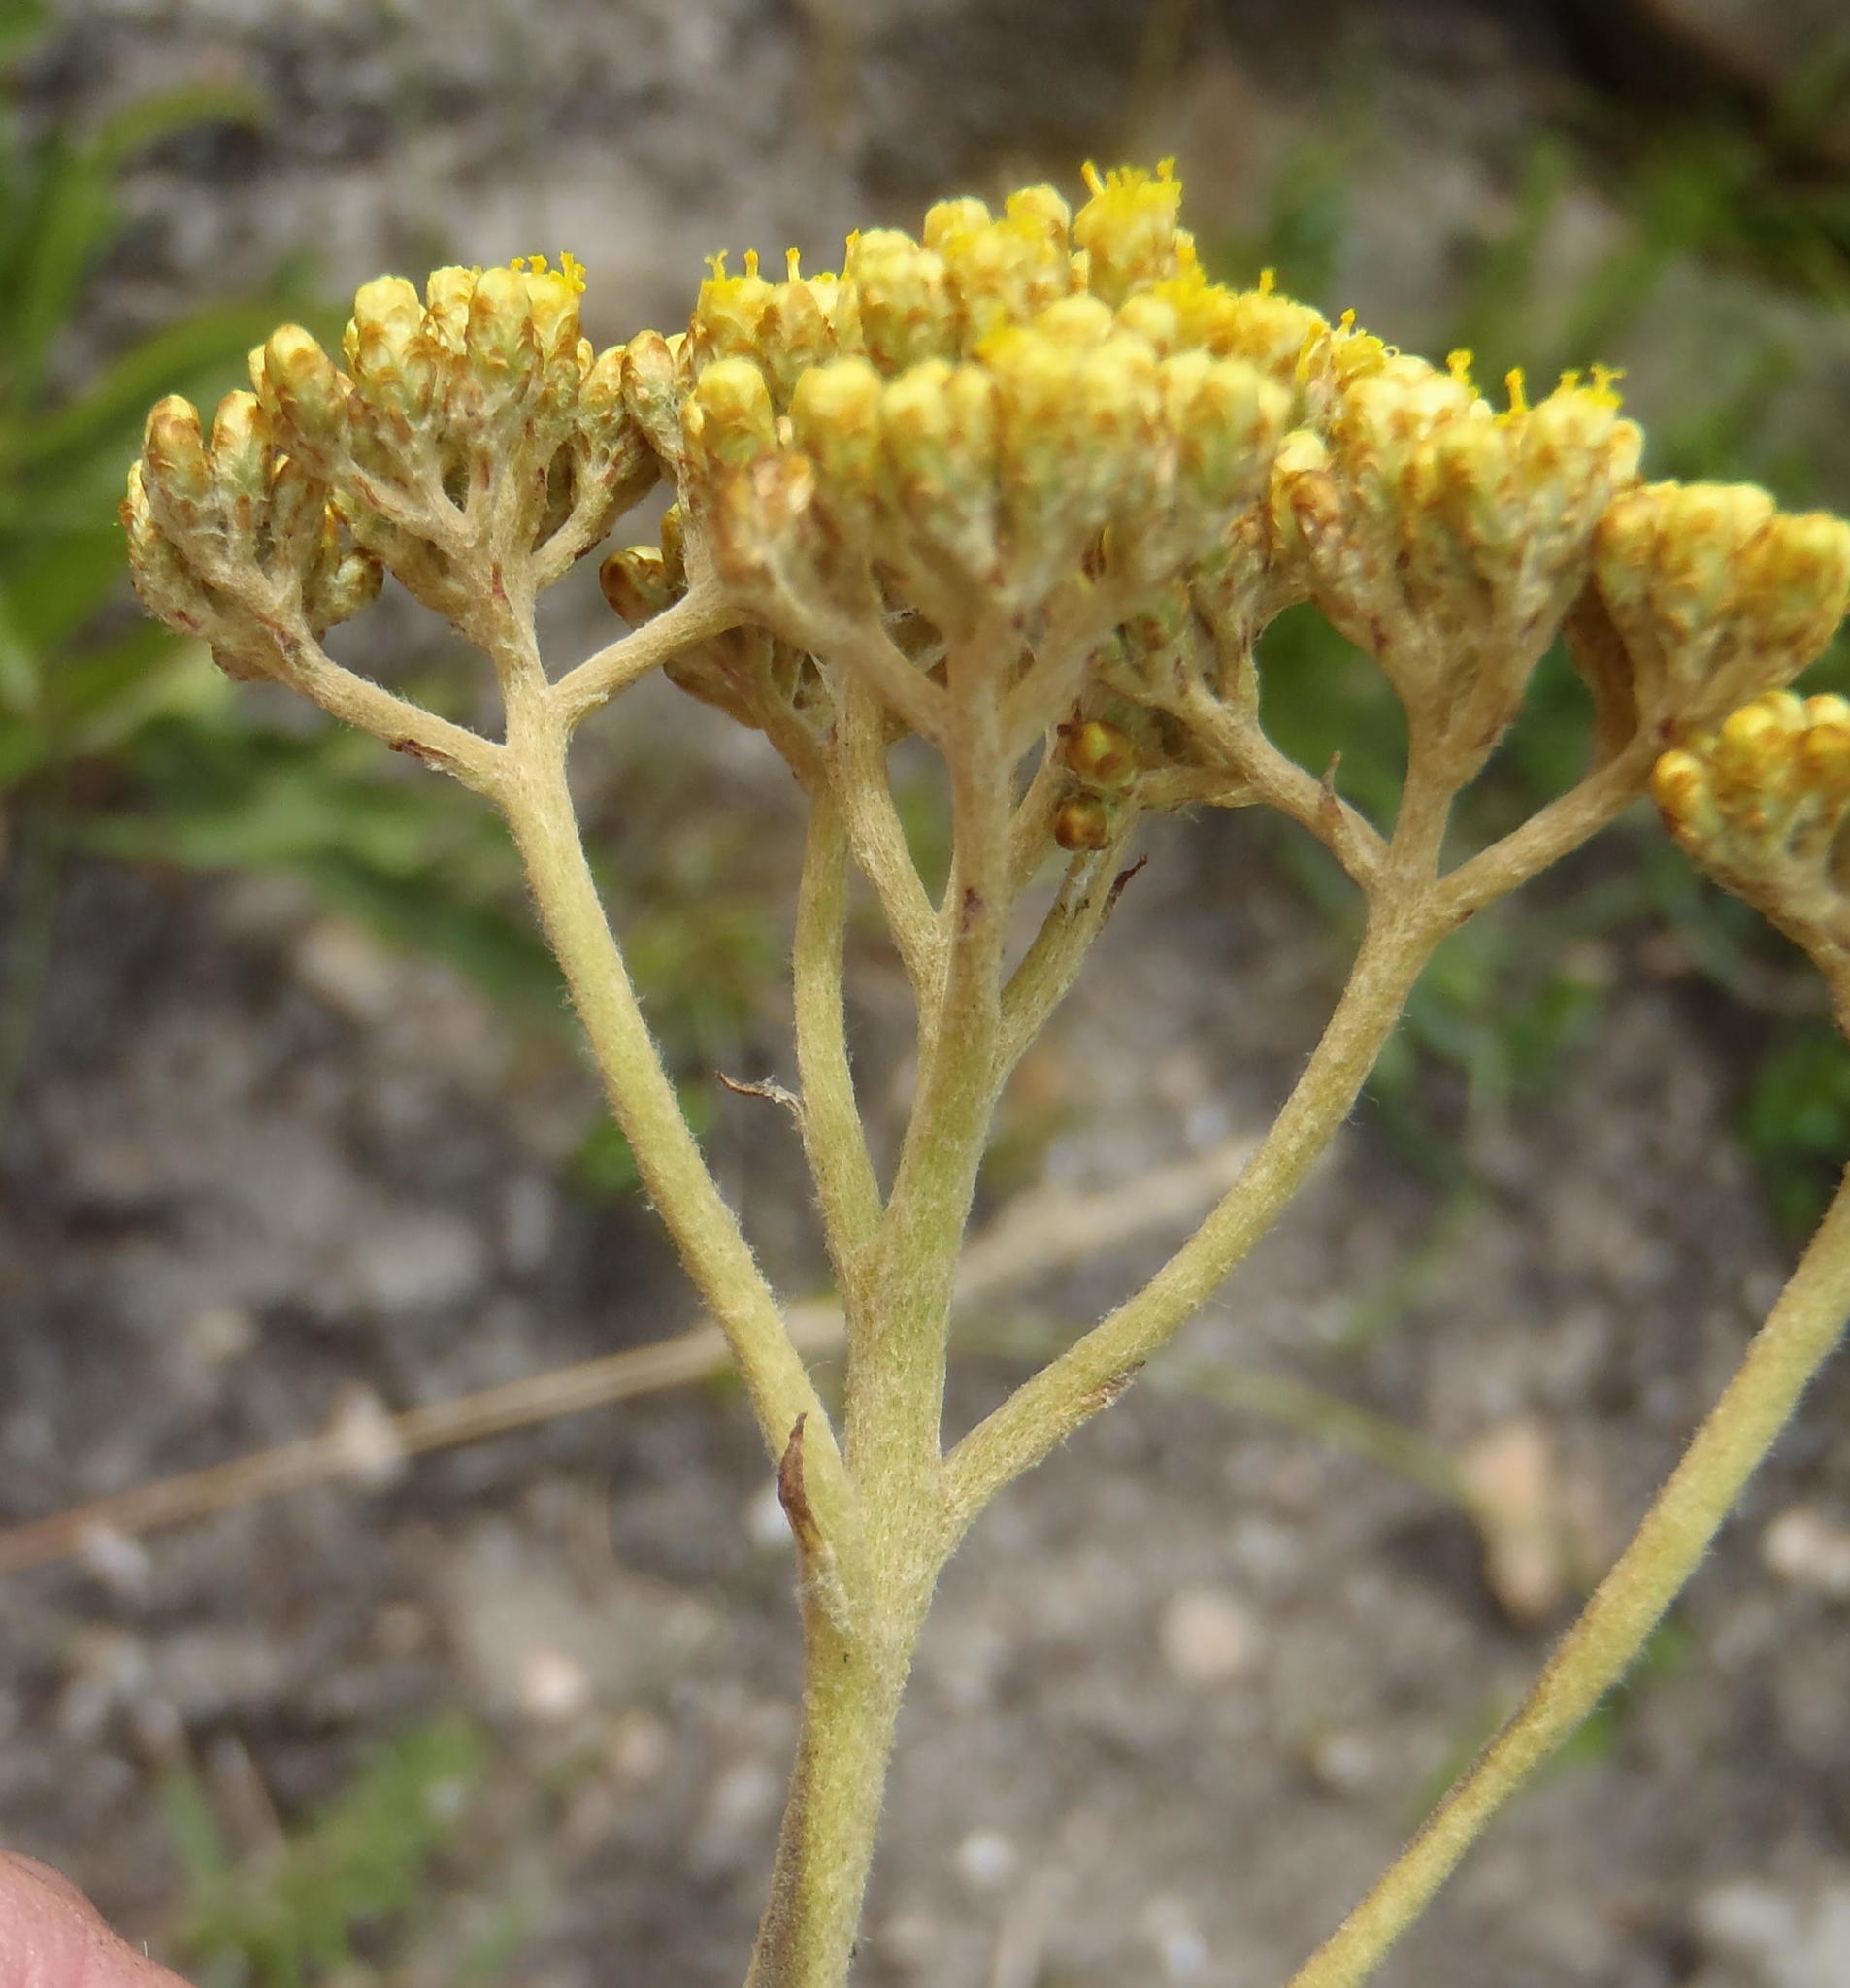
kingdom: Plantae
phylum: Tracheophyta
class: Magnoliopsida
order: Asterales
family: Asteraceae
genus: Helichrysum
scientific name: Helichrysum nudifolium
